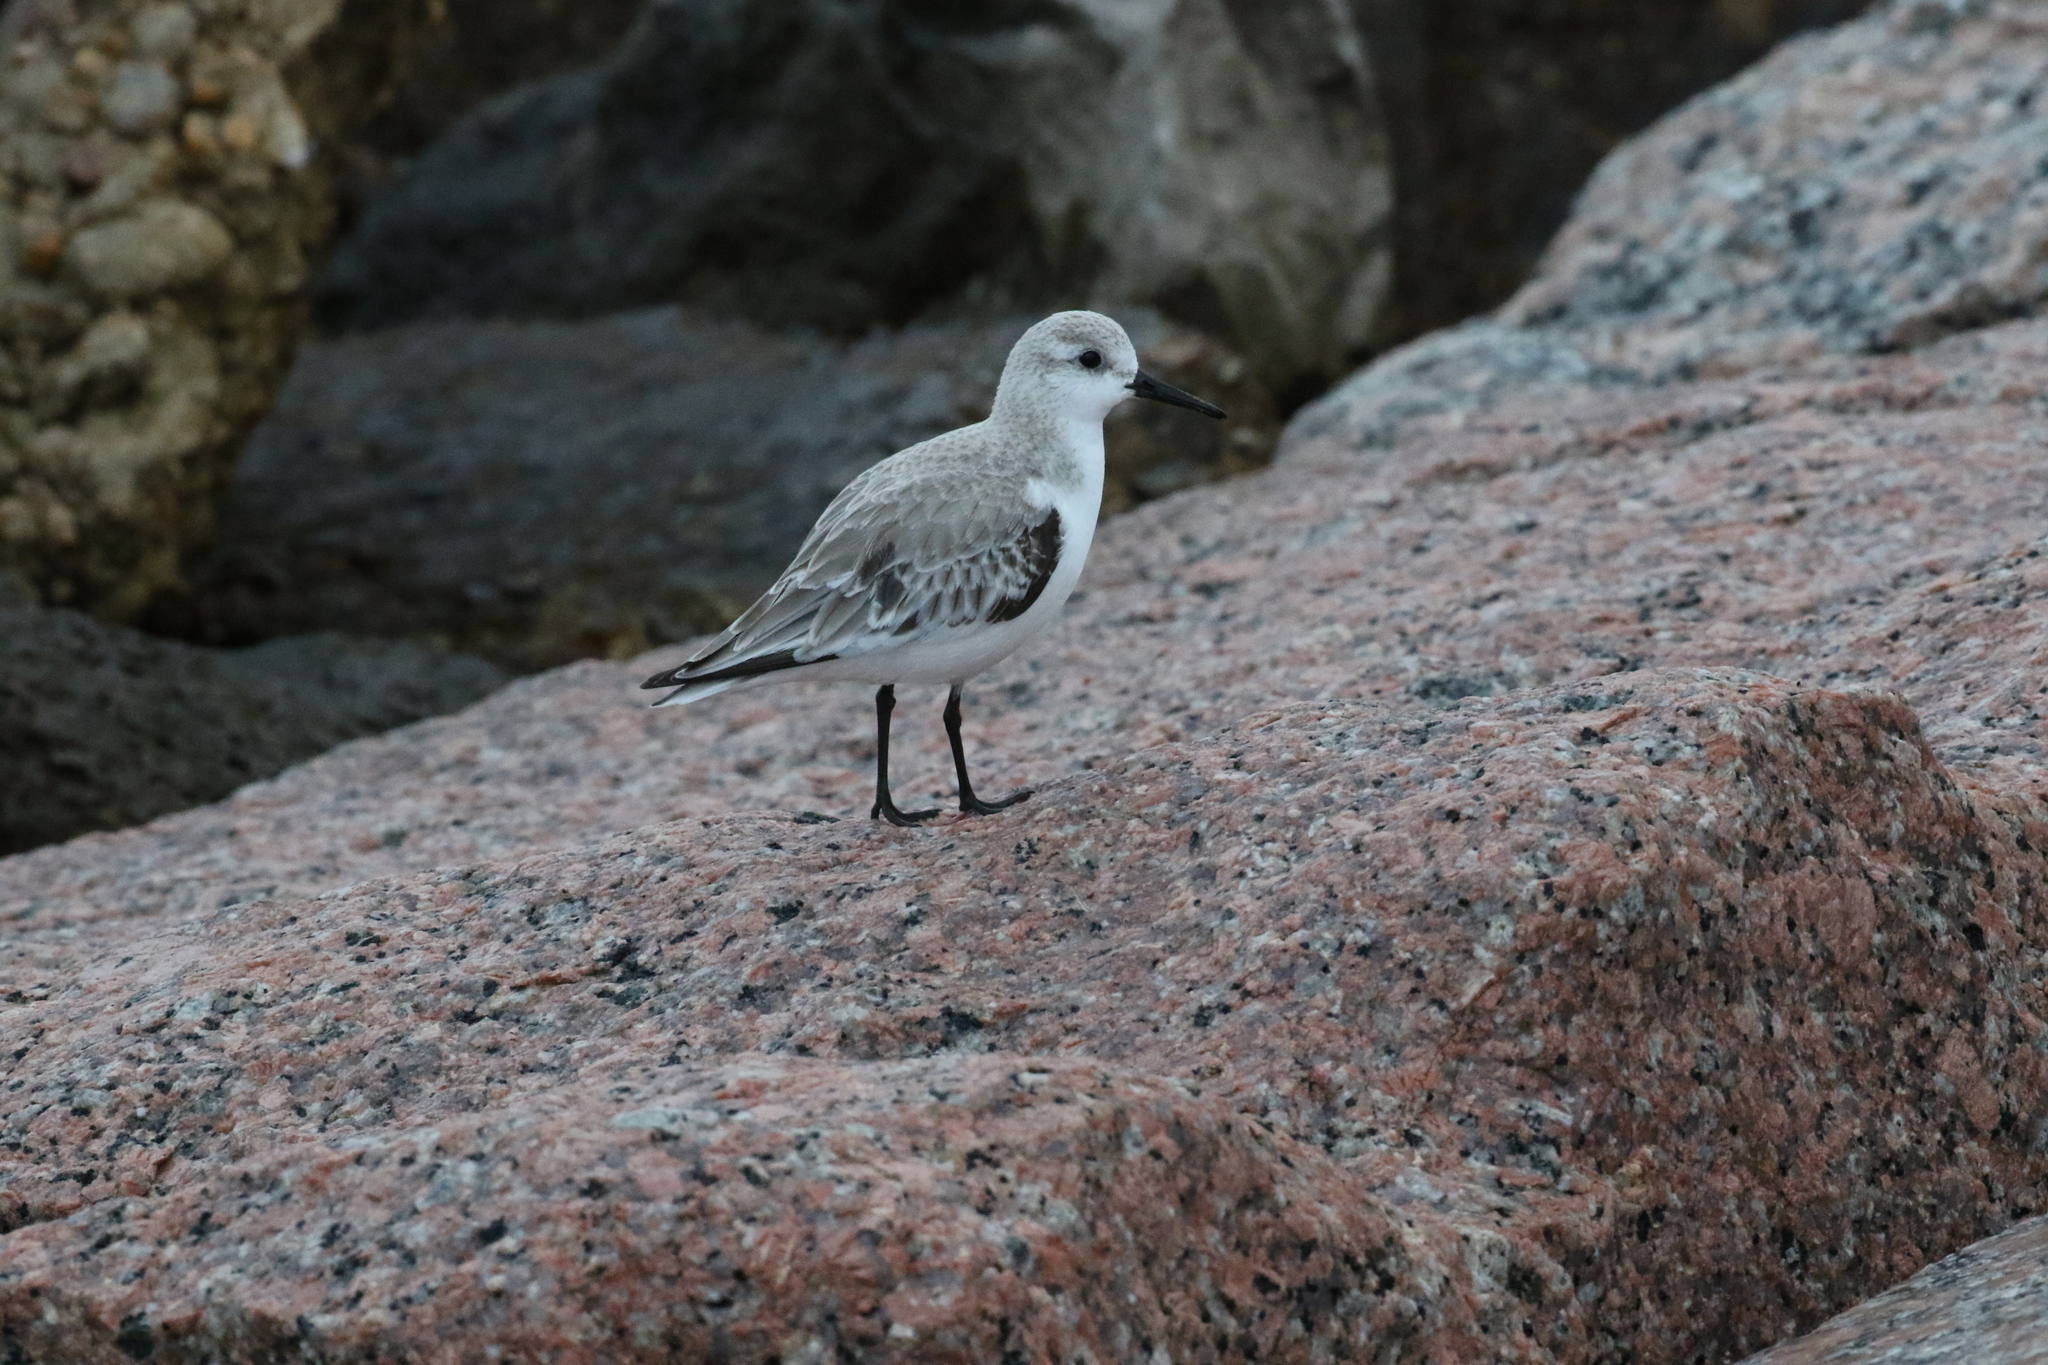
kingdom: Animalia
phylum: Chordata
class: Aves
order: Charadriiformes
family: Scolopacidae
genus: Calidris
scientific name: Calidris alba
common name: Sanderling
